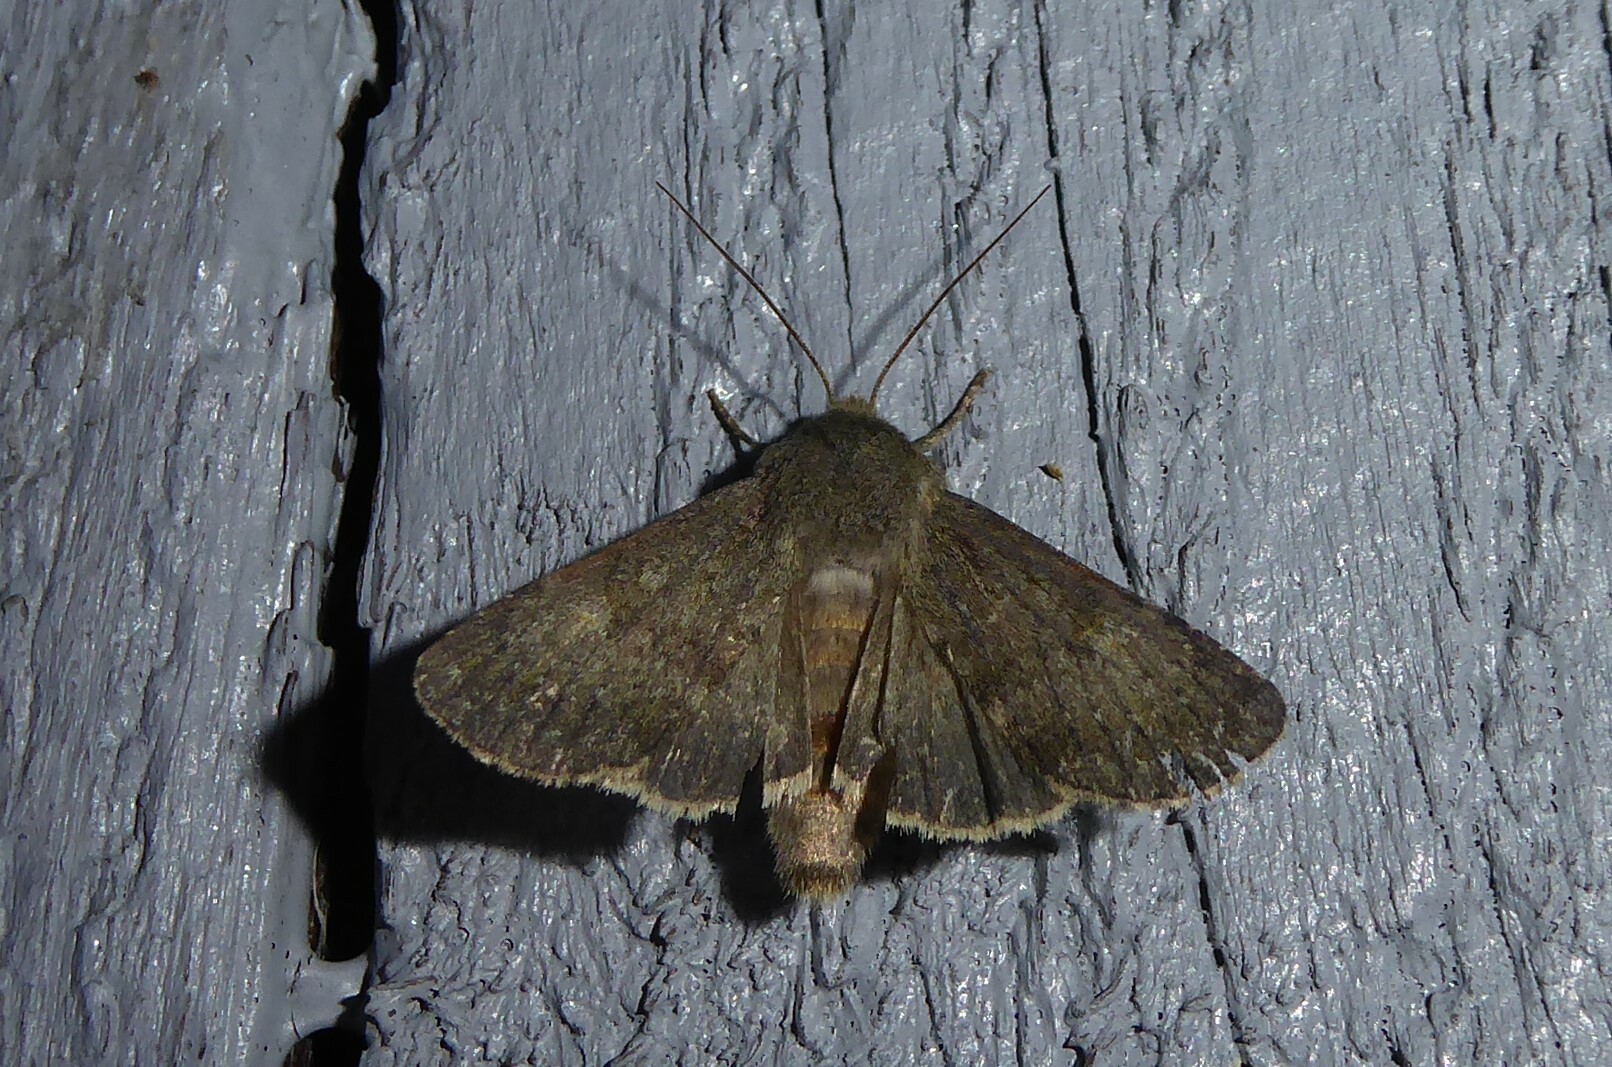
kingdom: Animalia
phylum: Arthropoda
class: Insecta
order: Lepidoptera
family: Noctuidae
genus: Ichneutica
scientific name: Ichneutica moderata
